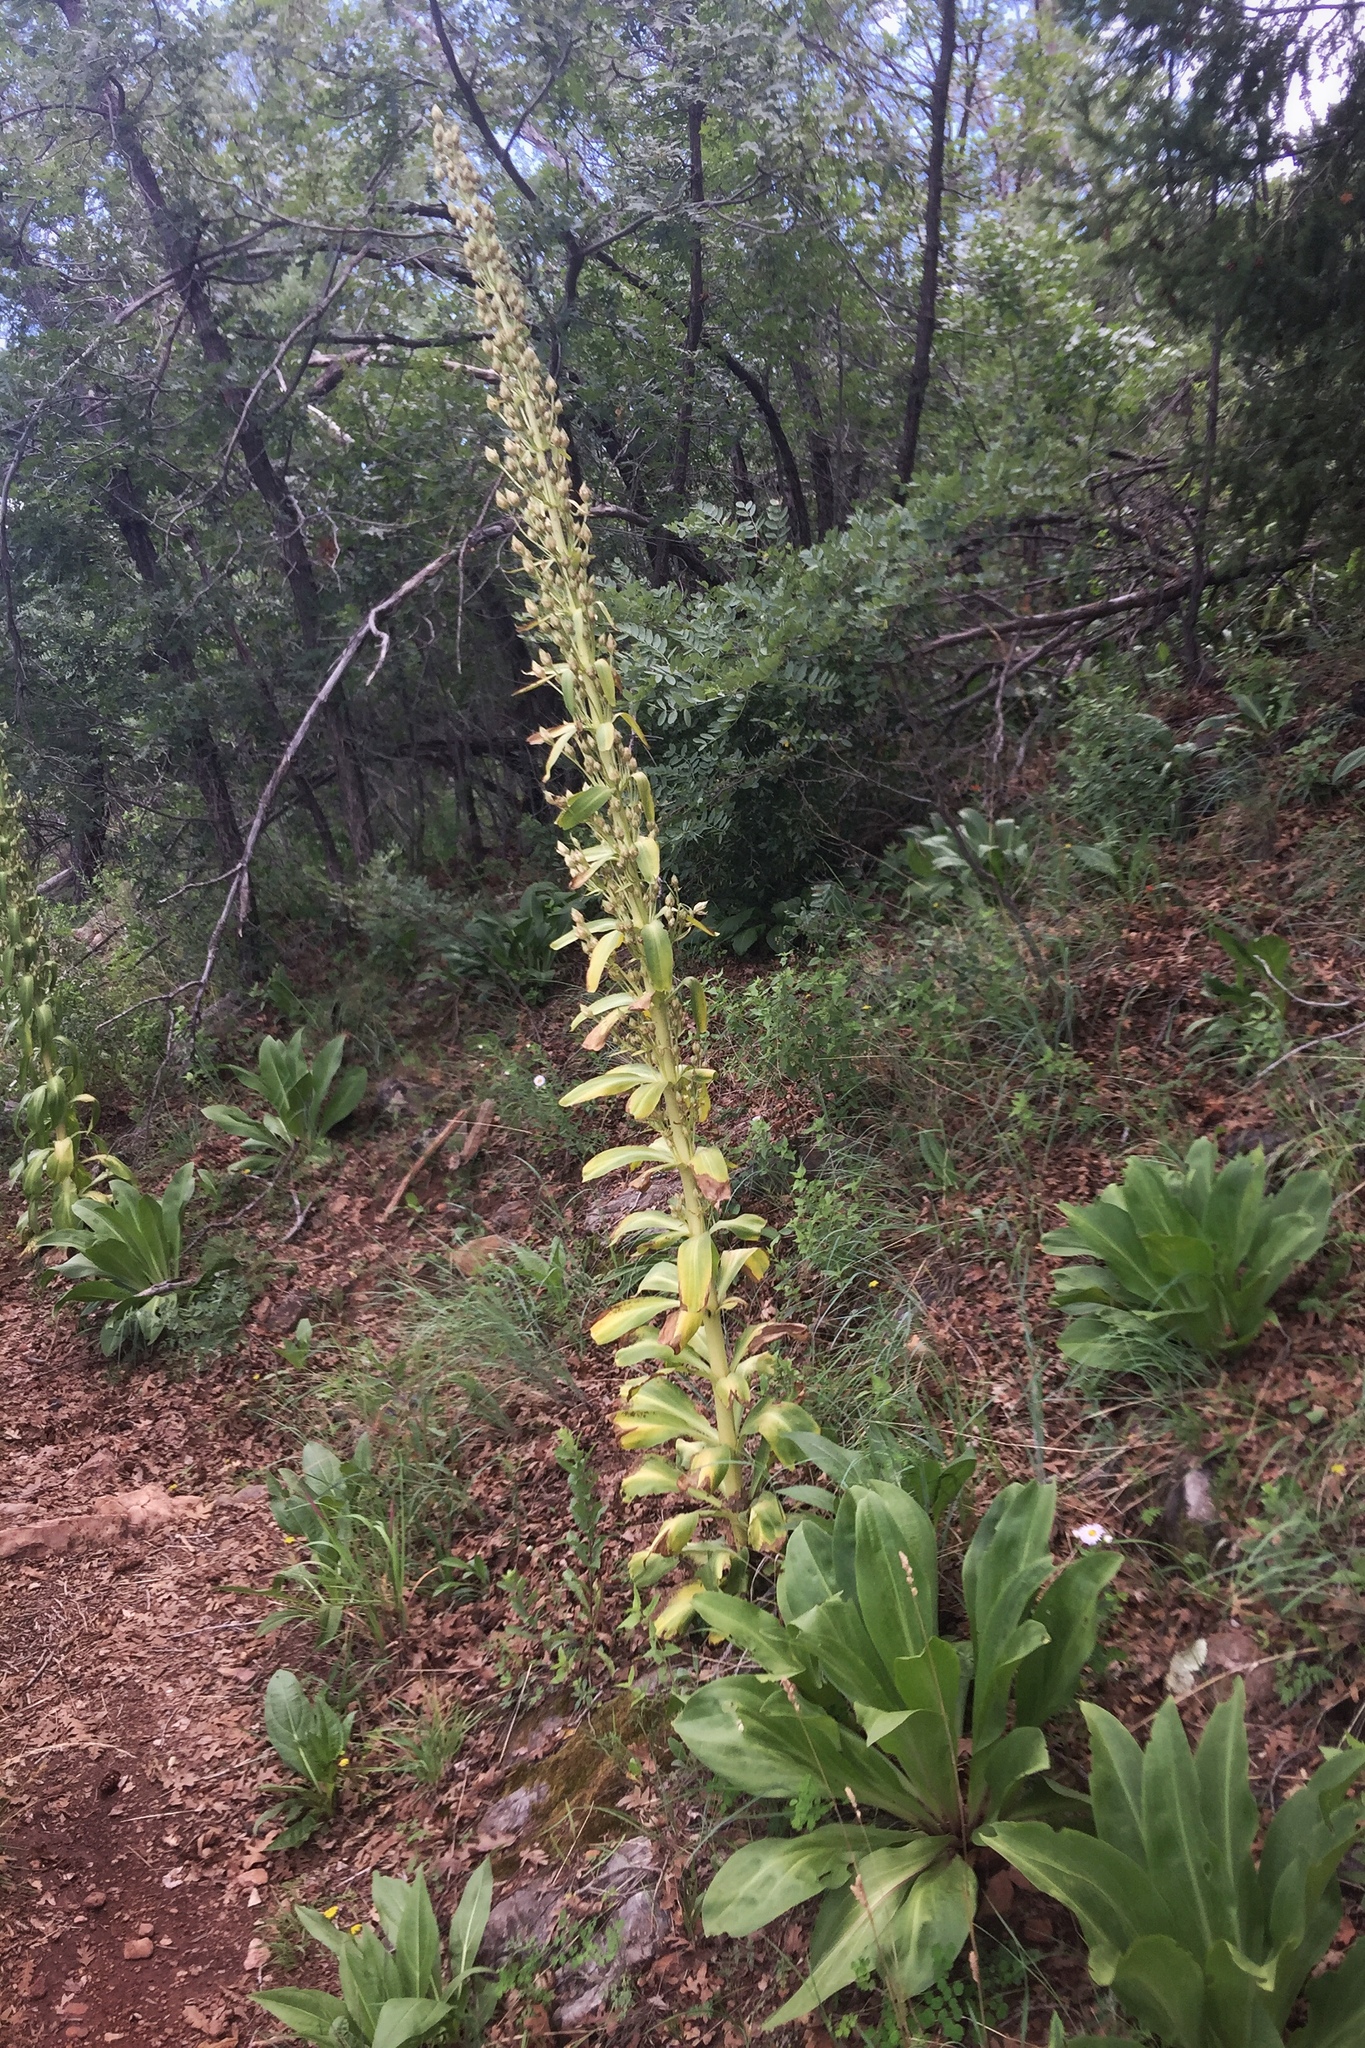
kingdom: Plantae
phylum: Tracheophyta
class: Magnoliopsida
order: Gentianales
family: Gentianaceae
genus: Frasera
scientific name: Frasera speciosa
